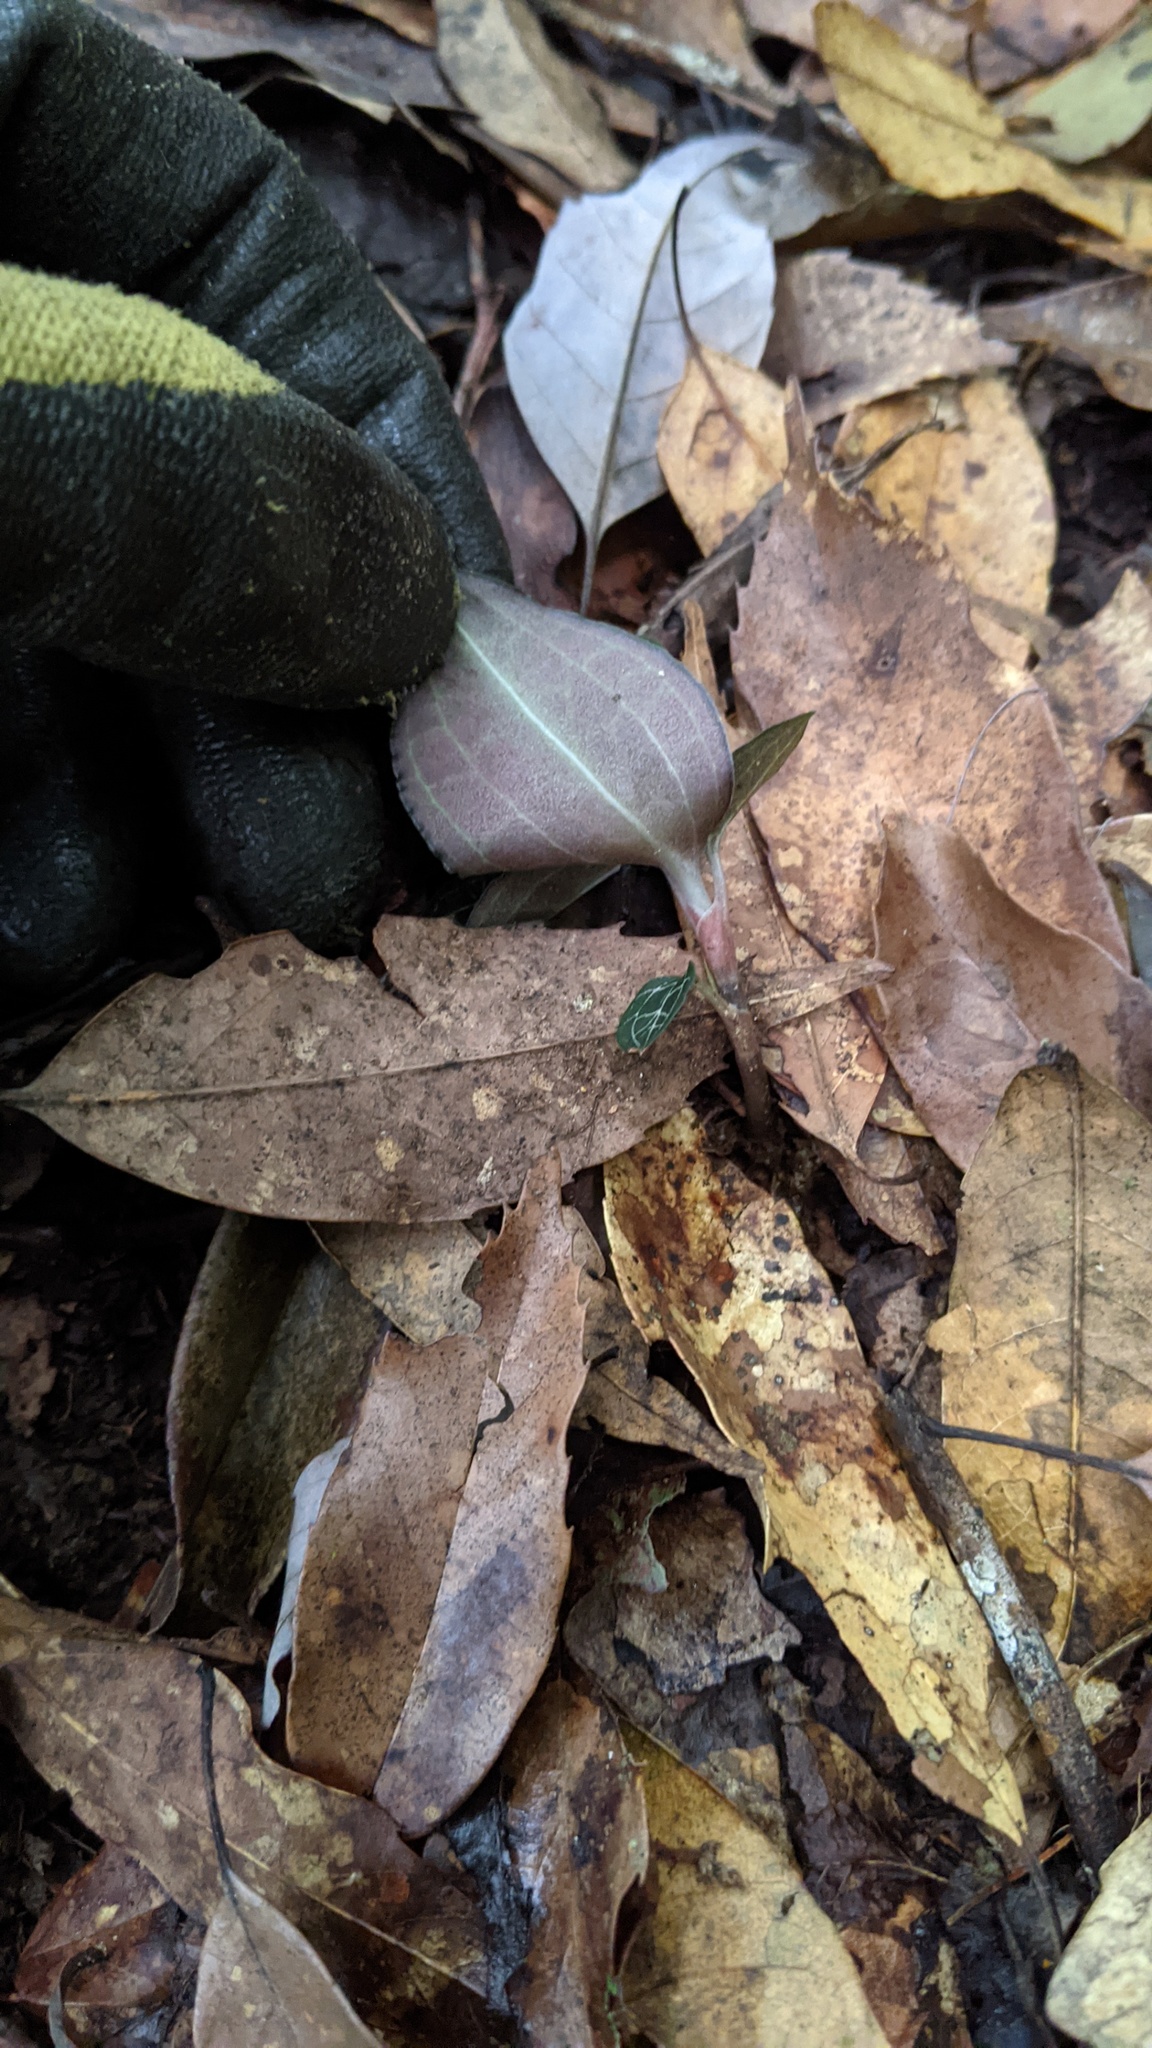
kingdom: Plantae
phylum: Tracheophyta
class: Liliopsida
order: Asparagales
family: Orchidaceae
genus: Anoectochilus
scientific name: Anoectochilus formosanus
